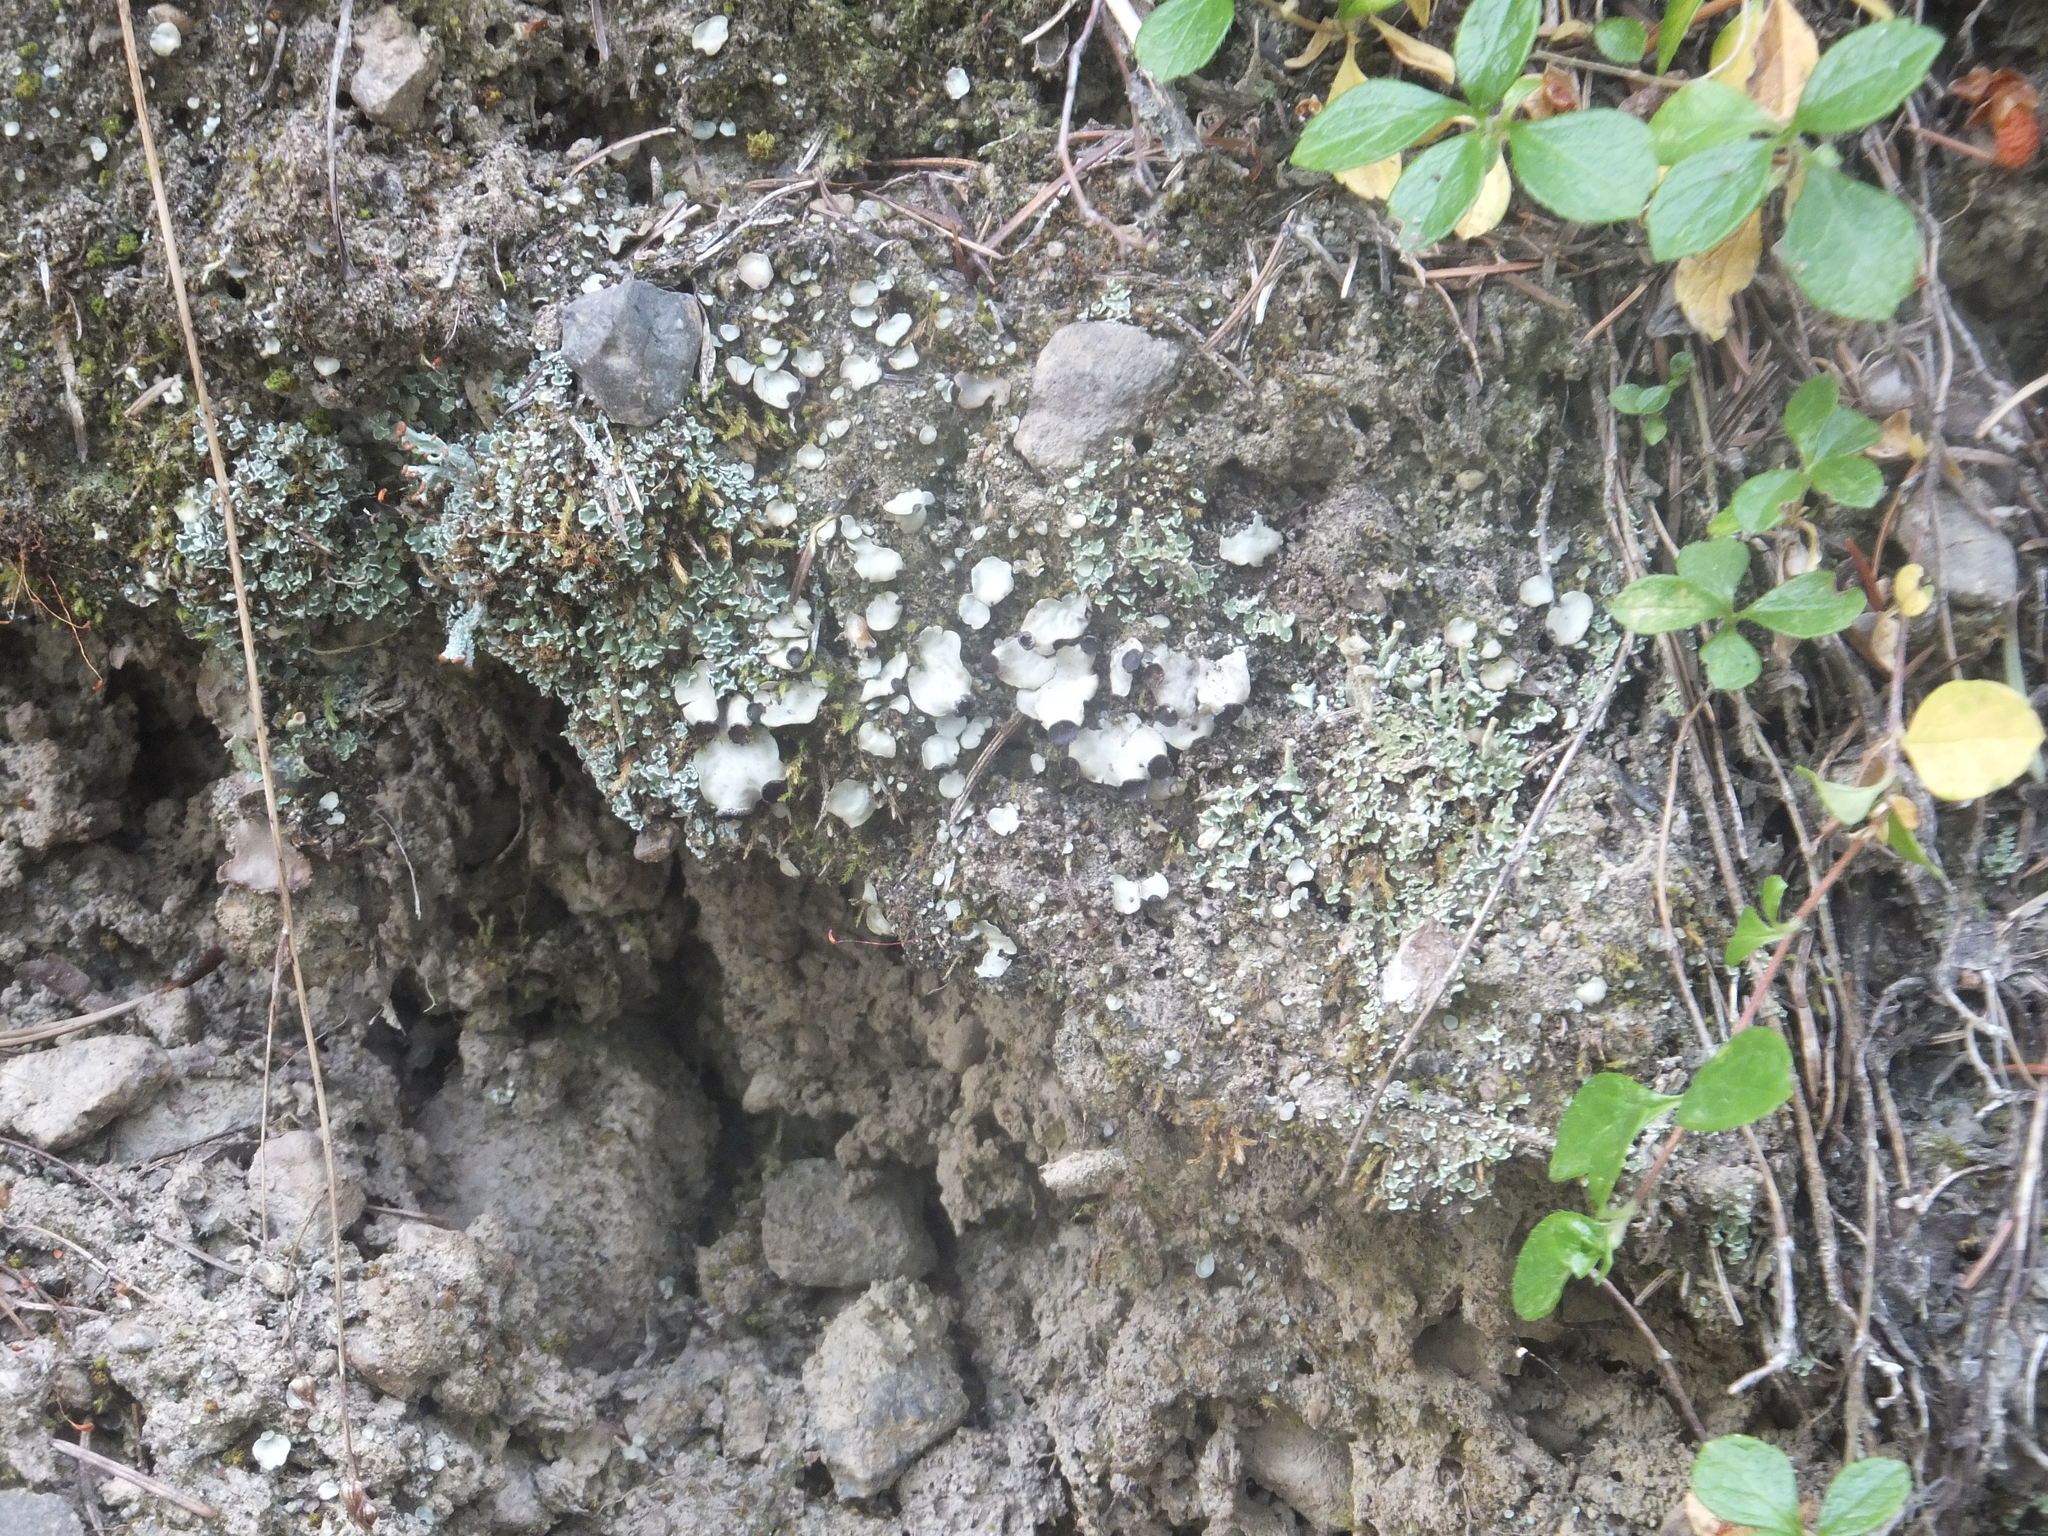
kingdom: Fungi
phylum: Ascomycota
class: Lecanoromycetes
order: Peltigerales
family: Peltigeraceae
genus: Peltigera
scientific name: Peltigera venosa
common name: Pixie gowns lichen
